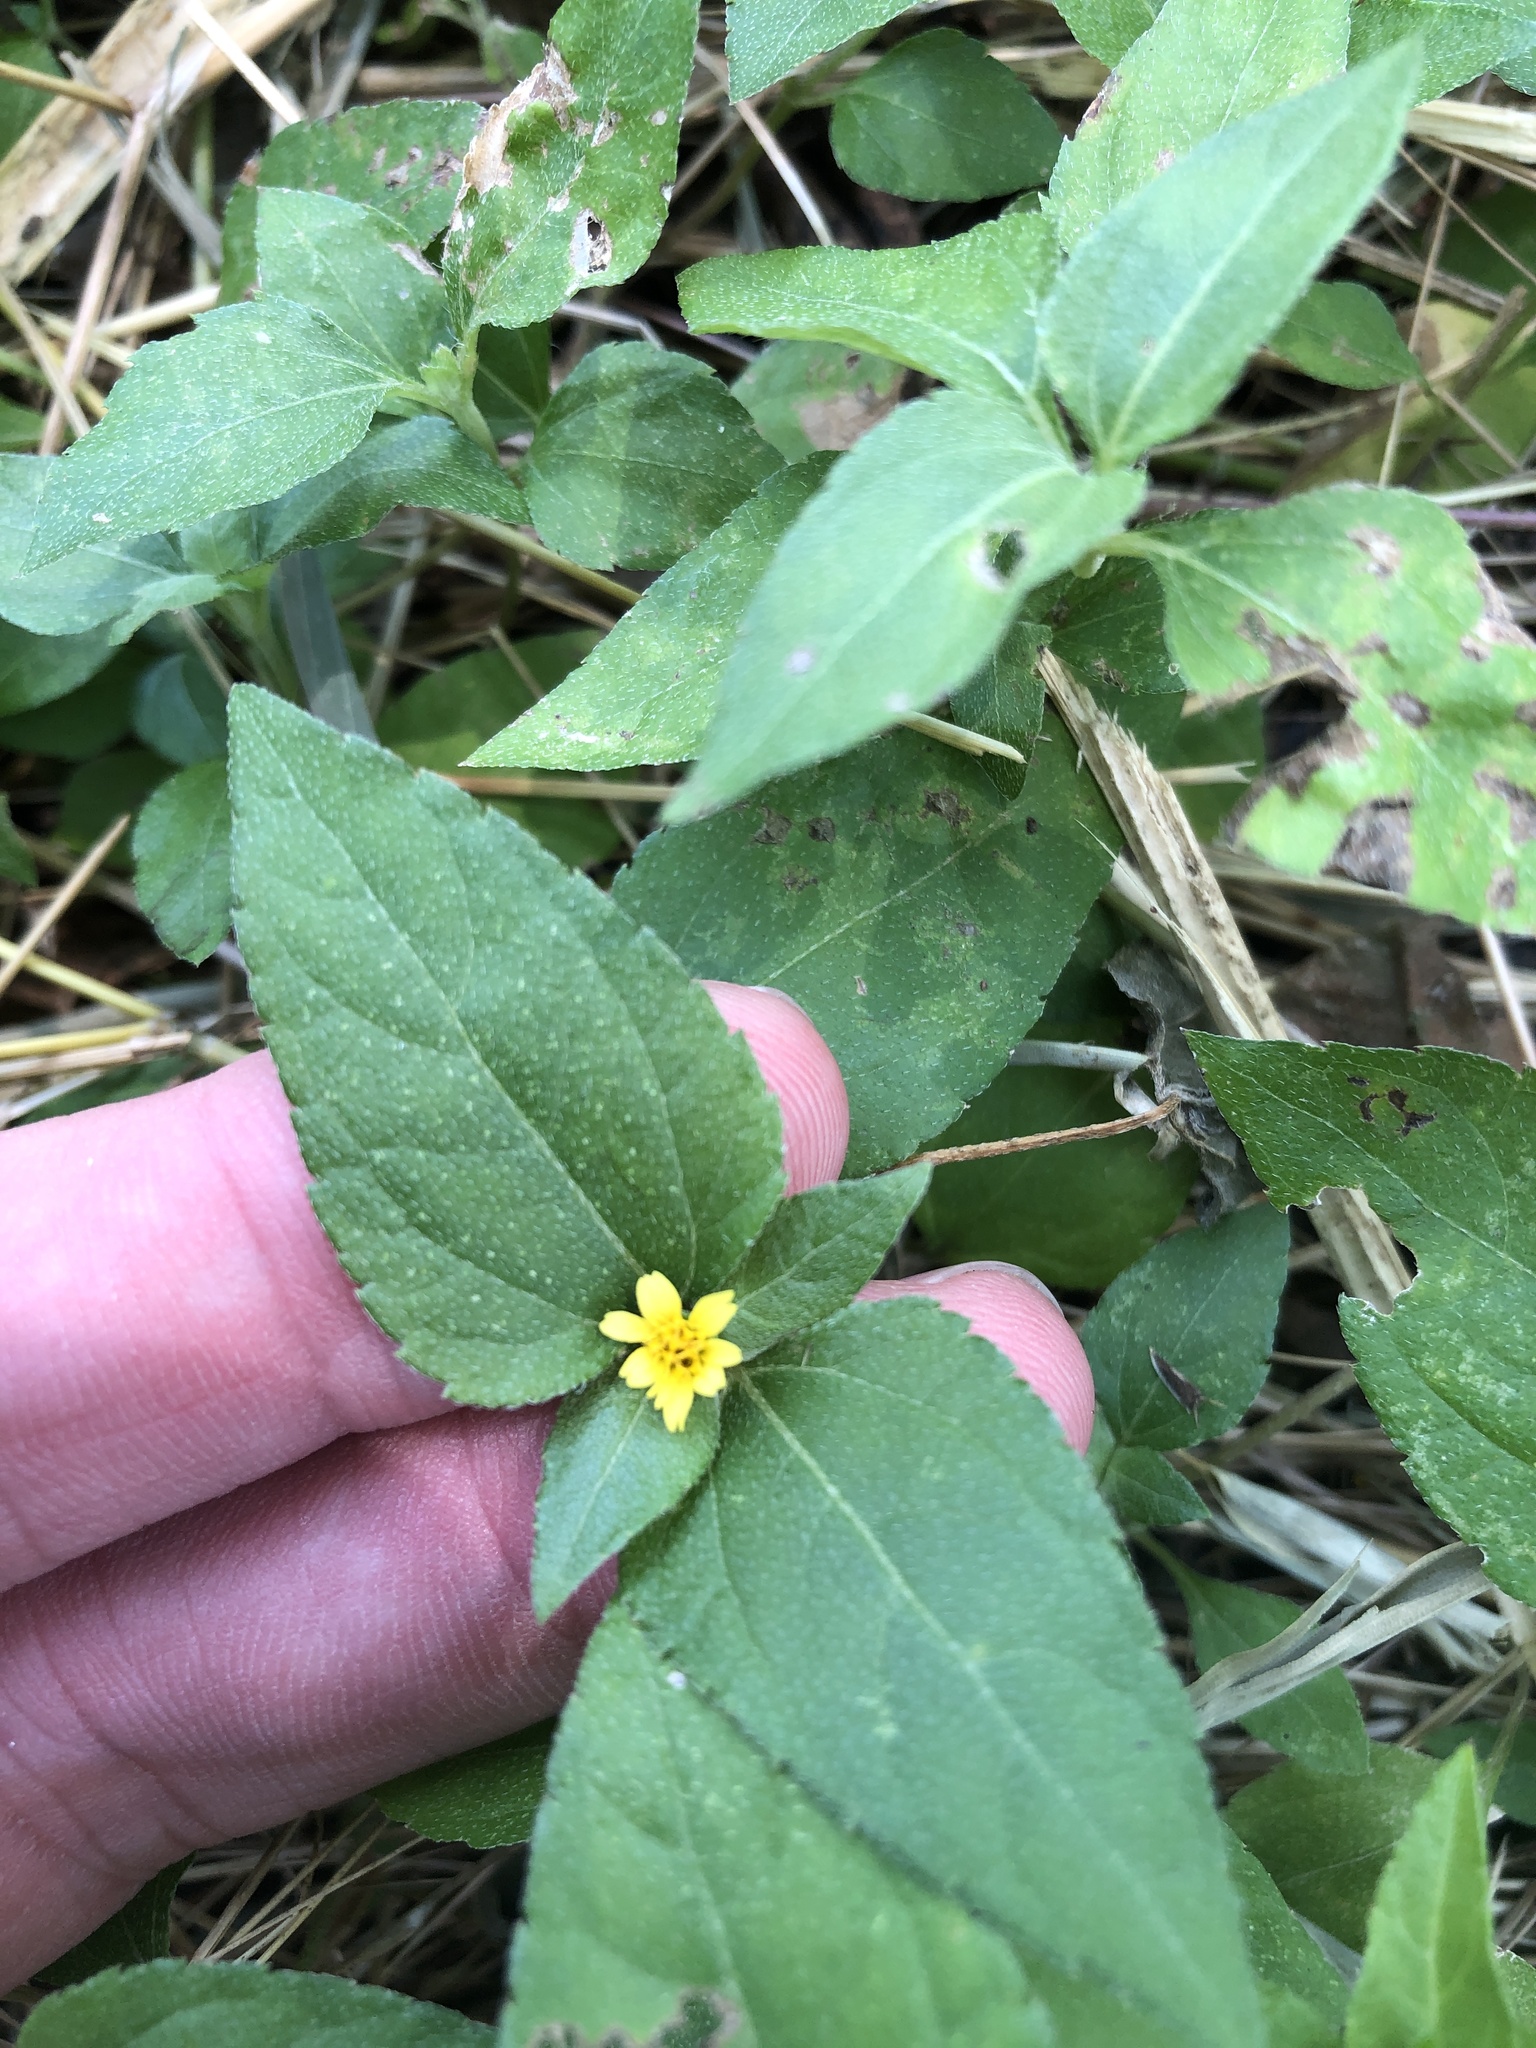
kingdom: Plantae
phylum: Tracheophyta
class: Magnoliopsida
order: Asterales
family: Asteraceae
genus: Calyptocarpus
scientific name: Calyptocarpus vialis
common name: Straggler daisy
